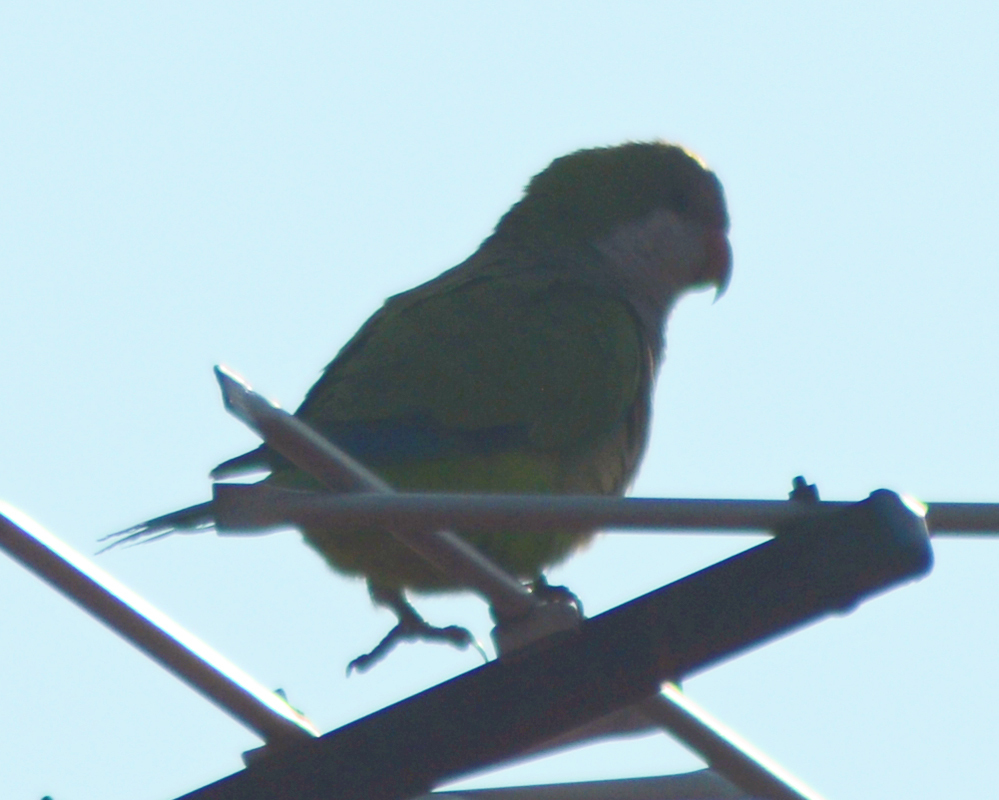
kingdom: Animalia
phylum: Chordata
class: Aves
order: Psittaciformes
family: Psittacidae
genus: Myiopsitta
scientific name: Myiopsitta monachus
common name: Monk parakeet
